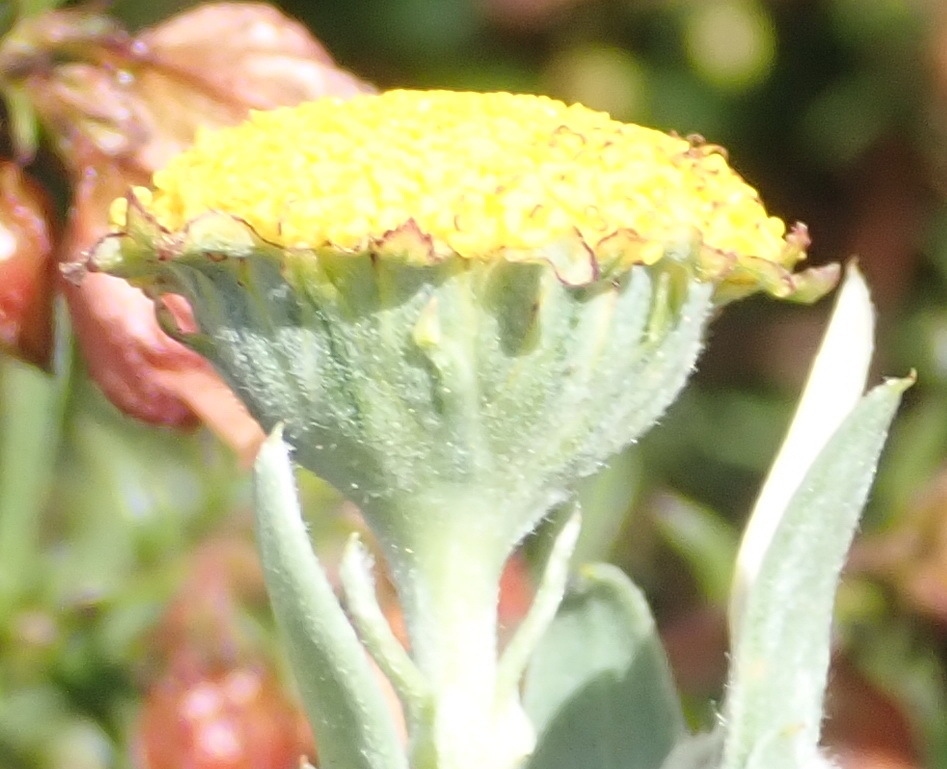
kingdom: Plantae
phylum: Tracheophyta
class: Magnoliopsida
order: Asterales
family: Asteraceae
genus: Schistostephium
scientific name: Schistostephium umbellatum
